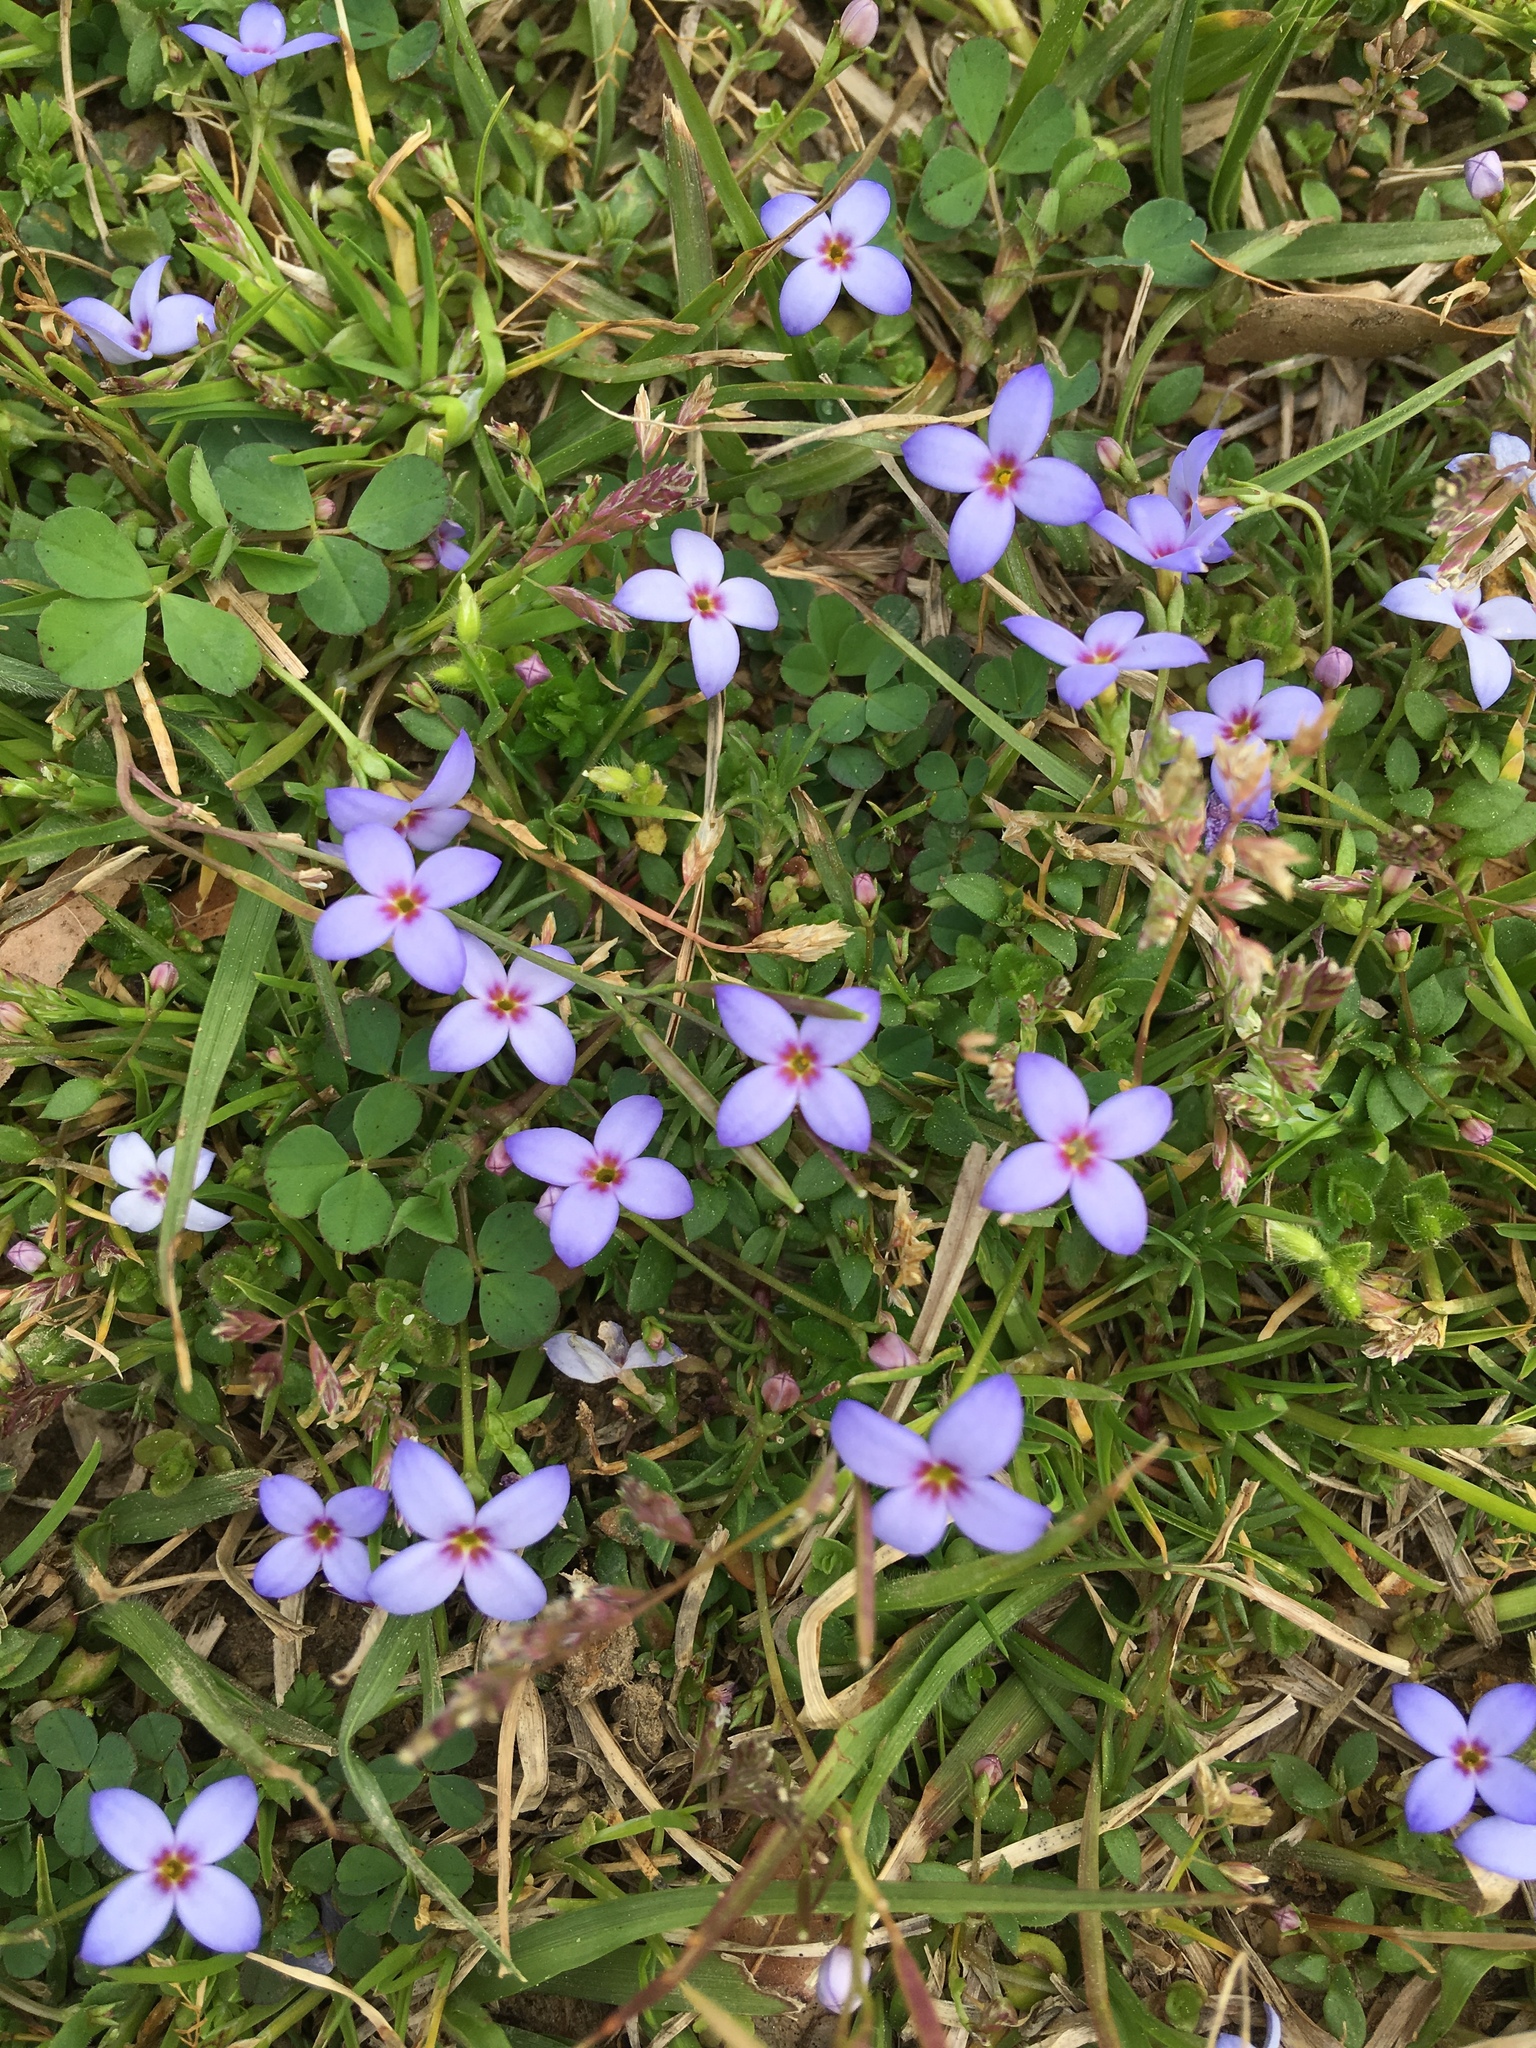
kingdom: Plantae
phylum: Tracheophyta
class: Magnoliopsida
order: Gentianales
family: Rubiaceae
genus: Houstonia
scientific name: Houstonia pusilla
